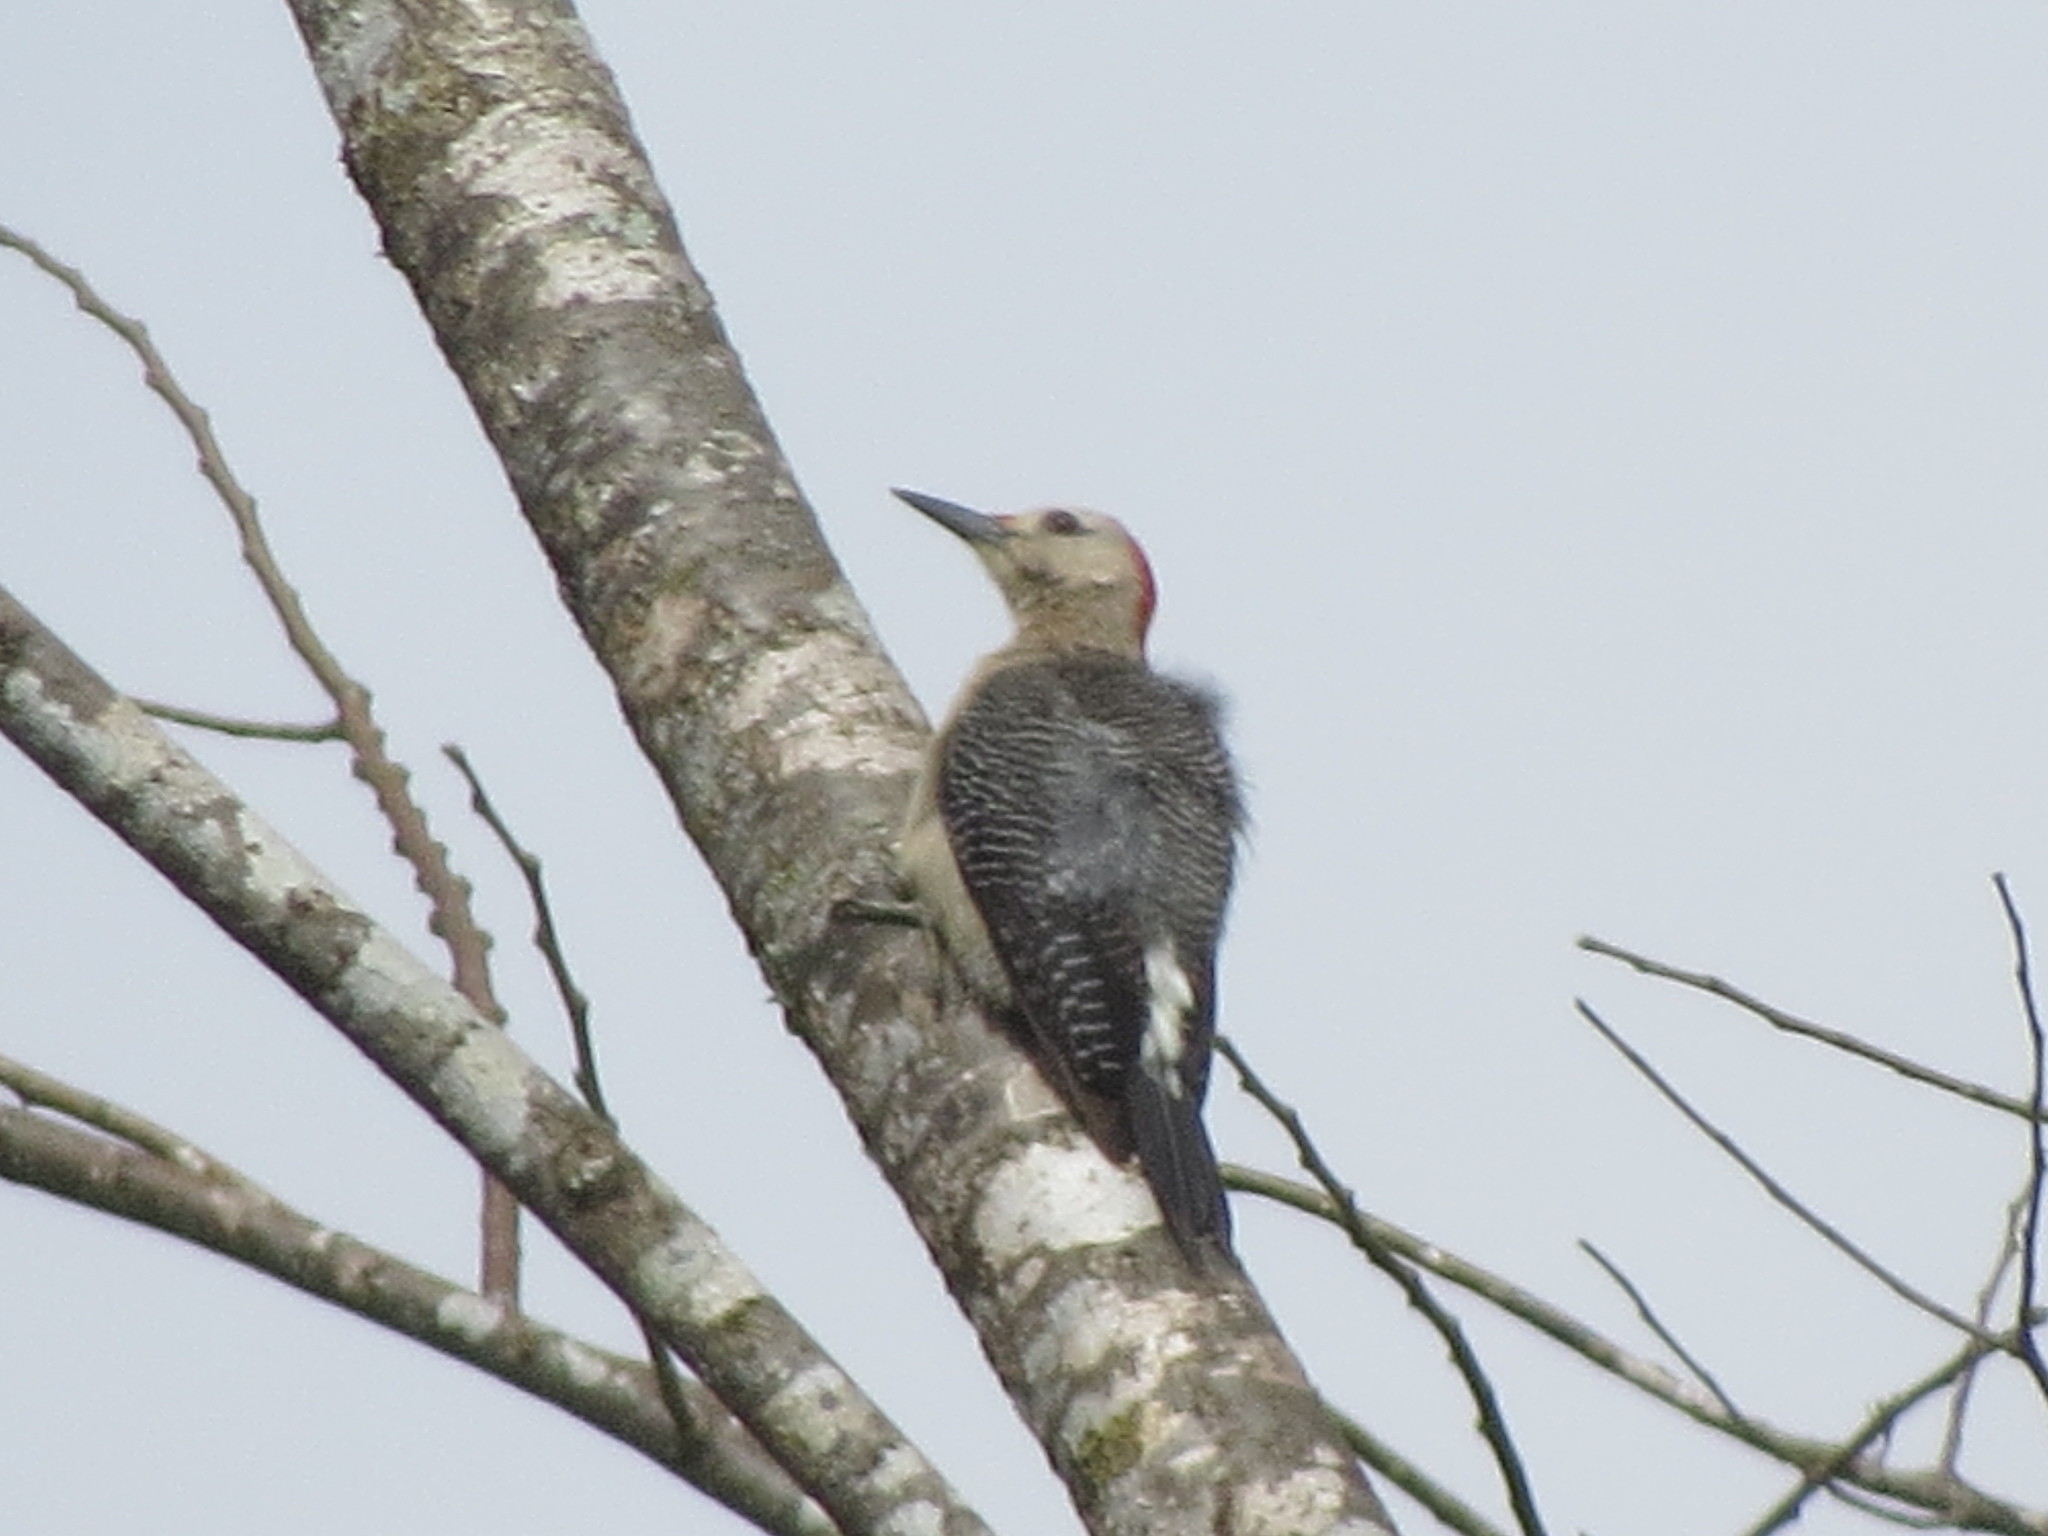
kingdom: Animalia
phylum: Chordata
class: Aves
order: Piciformes
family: Picidae
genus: Melanerpes
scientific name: Melanerpes aurifrons
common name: Golden-fronted woodpecker
